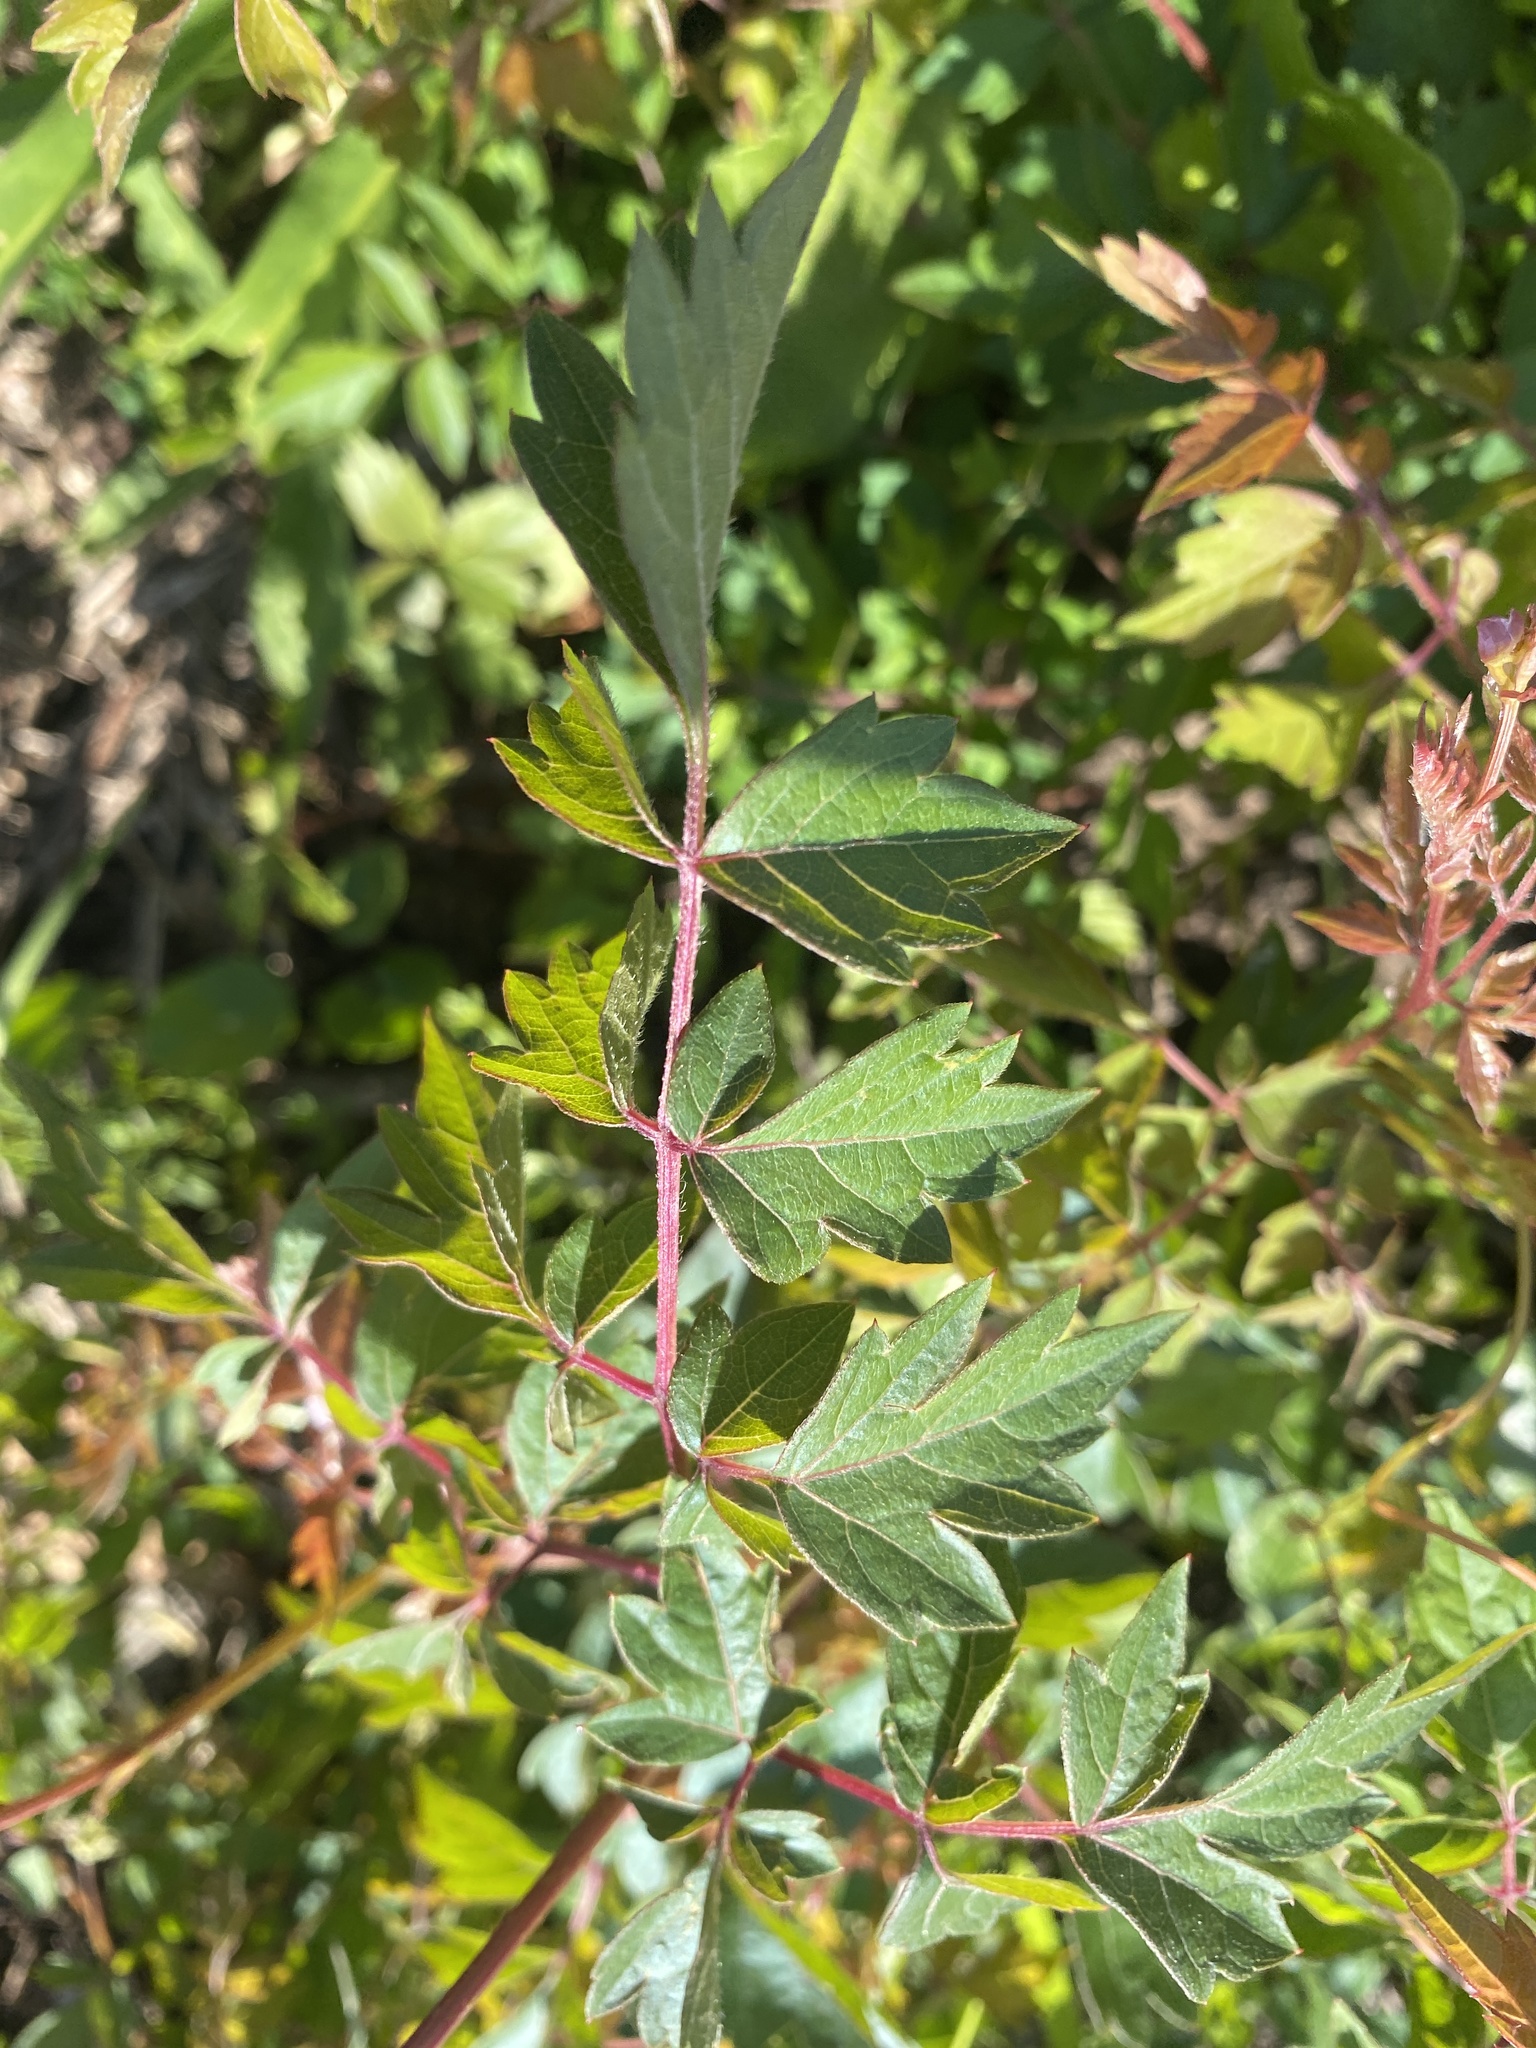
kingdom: Plantae
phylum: Tracheophyta
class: Magnoliopsida
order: Vitales
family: Vitaceae
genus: Nekemias
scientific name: Nekemias arborea
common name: Peppervine
